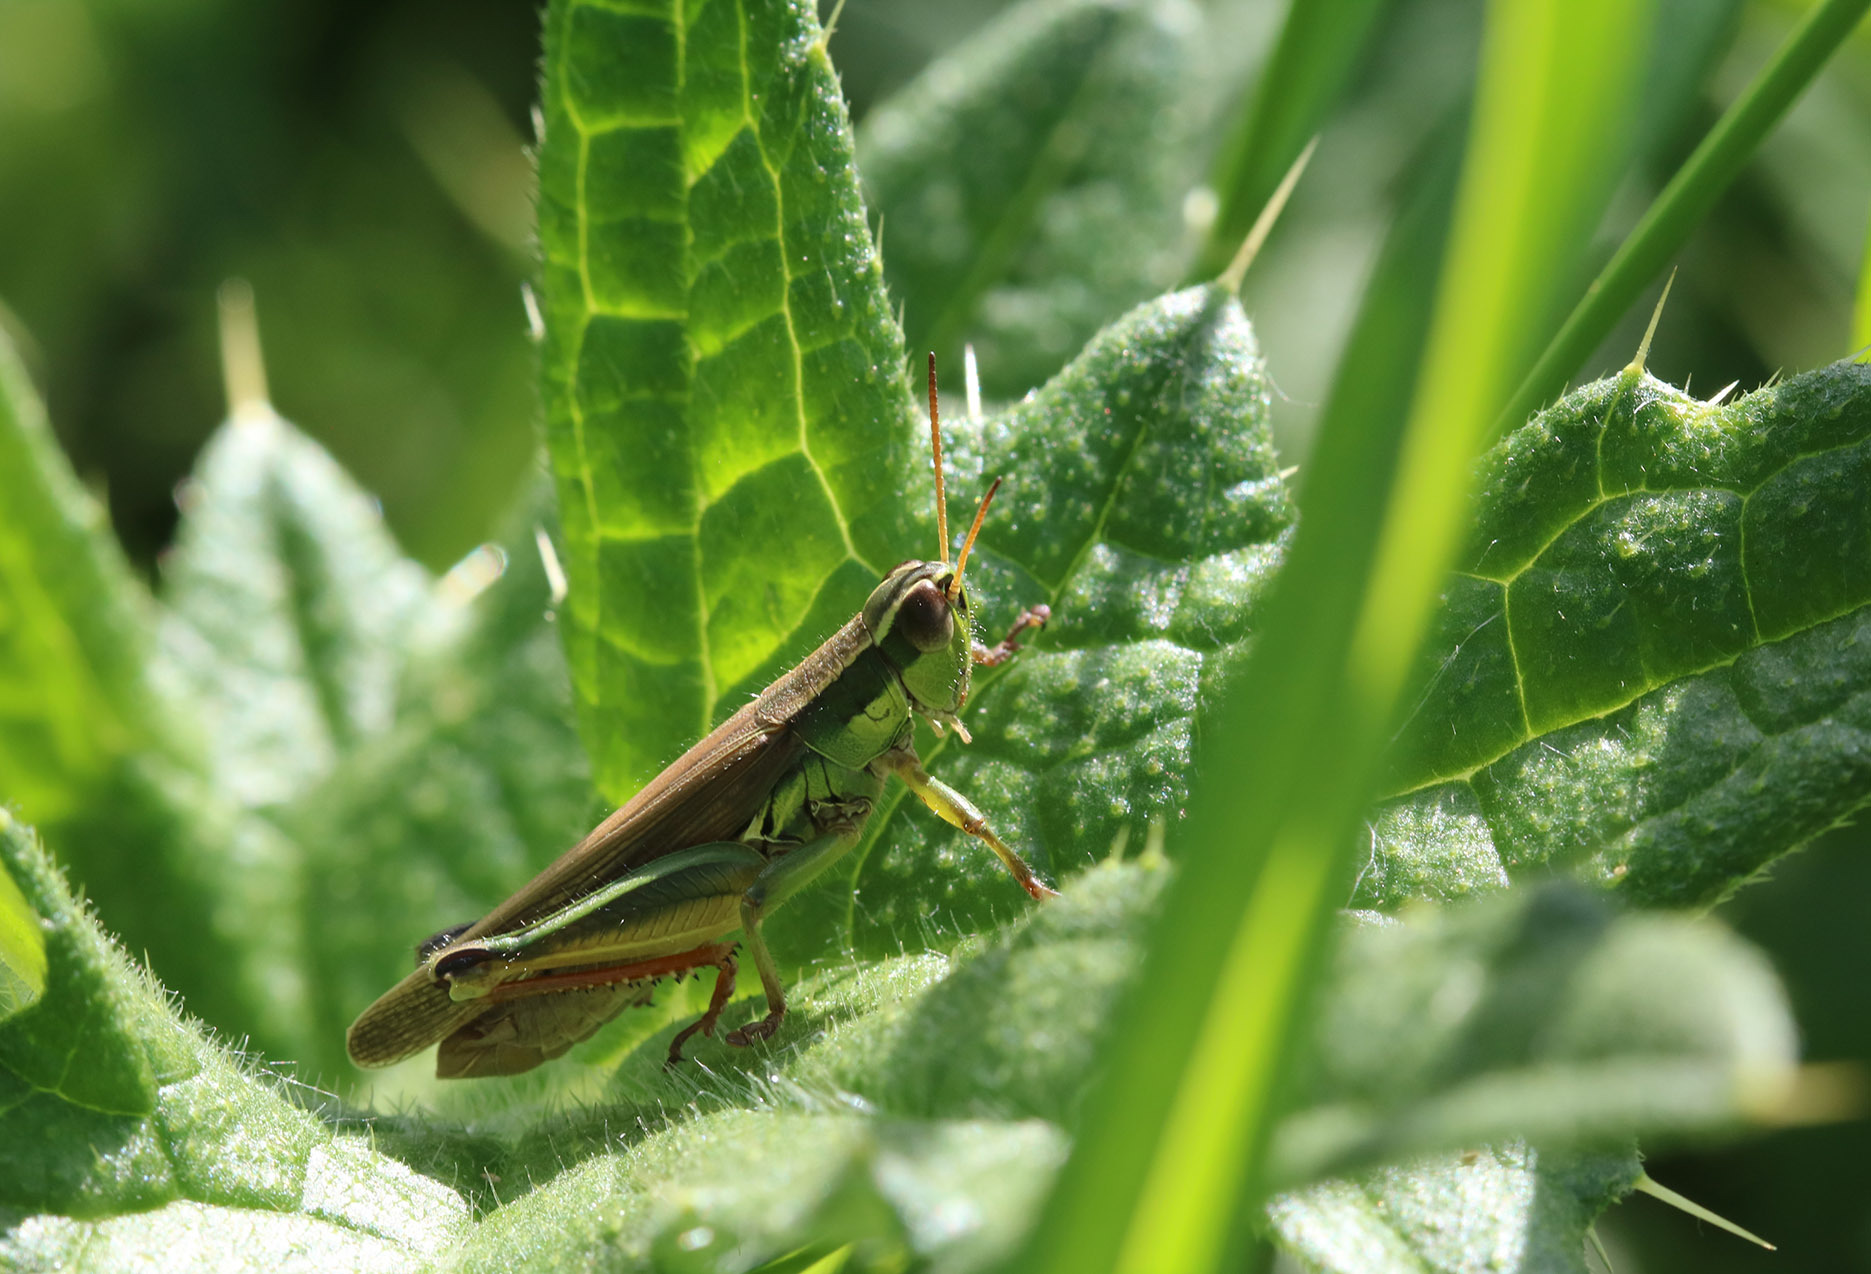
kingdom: Animalia
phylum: Arthropoda
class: Insecta
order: Orthoptera
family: Acrididae
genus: Scotussa
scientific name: Scotussa cliens
